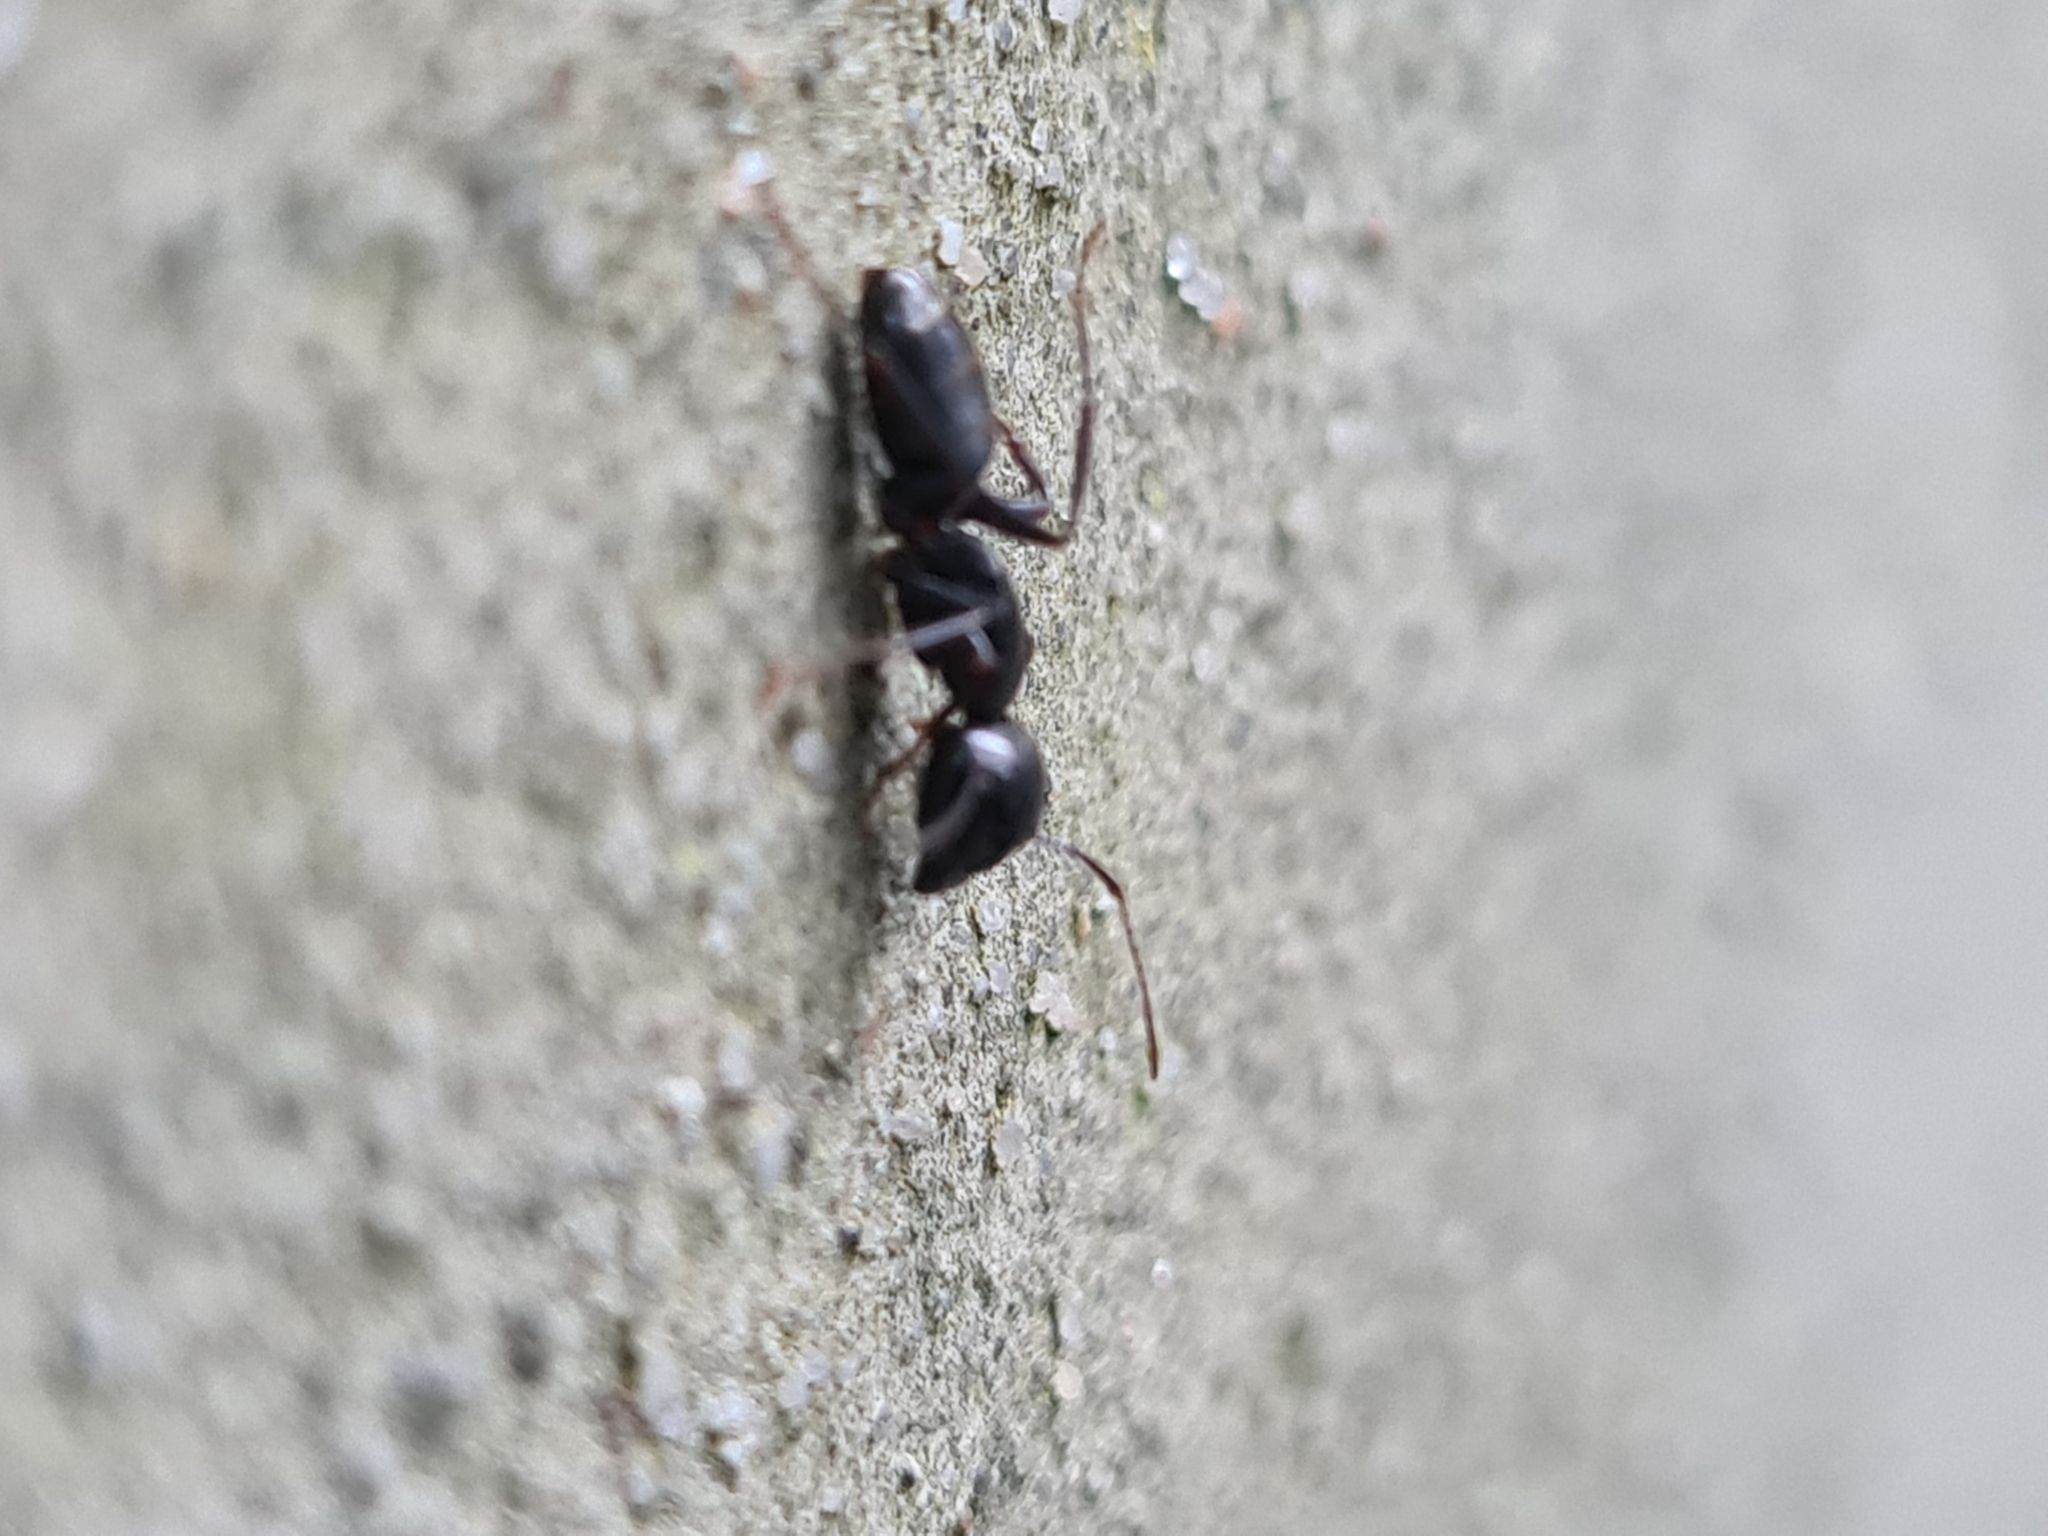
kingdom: Animalia
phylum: Arthropoda
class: Insecta
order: Hymenoptera
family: Formicidae
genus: Camponotus
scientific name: Camponotus fallax
